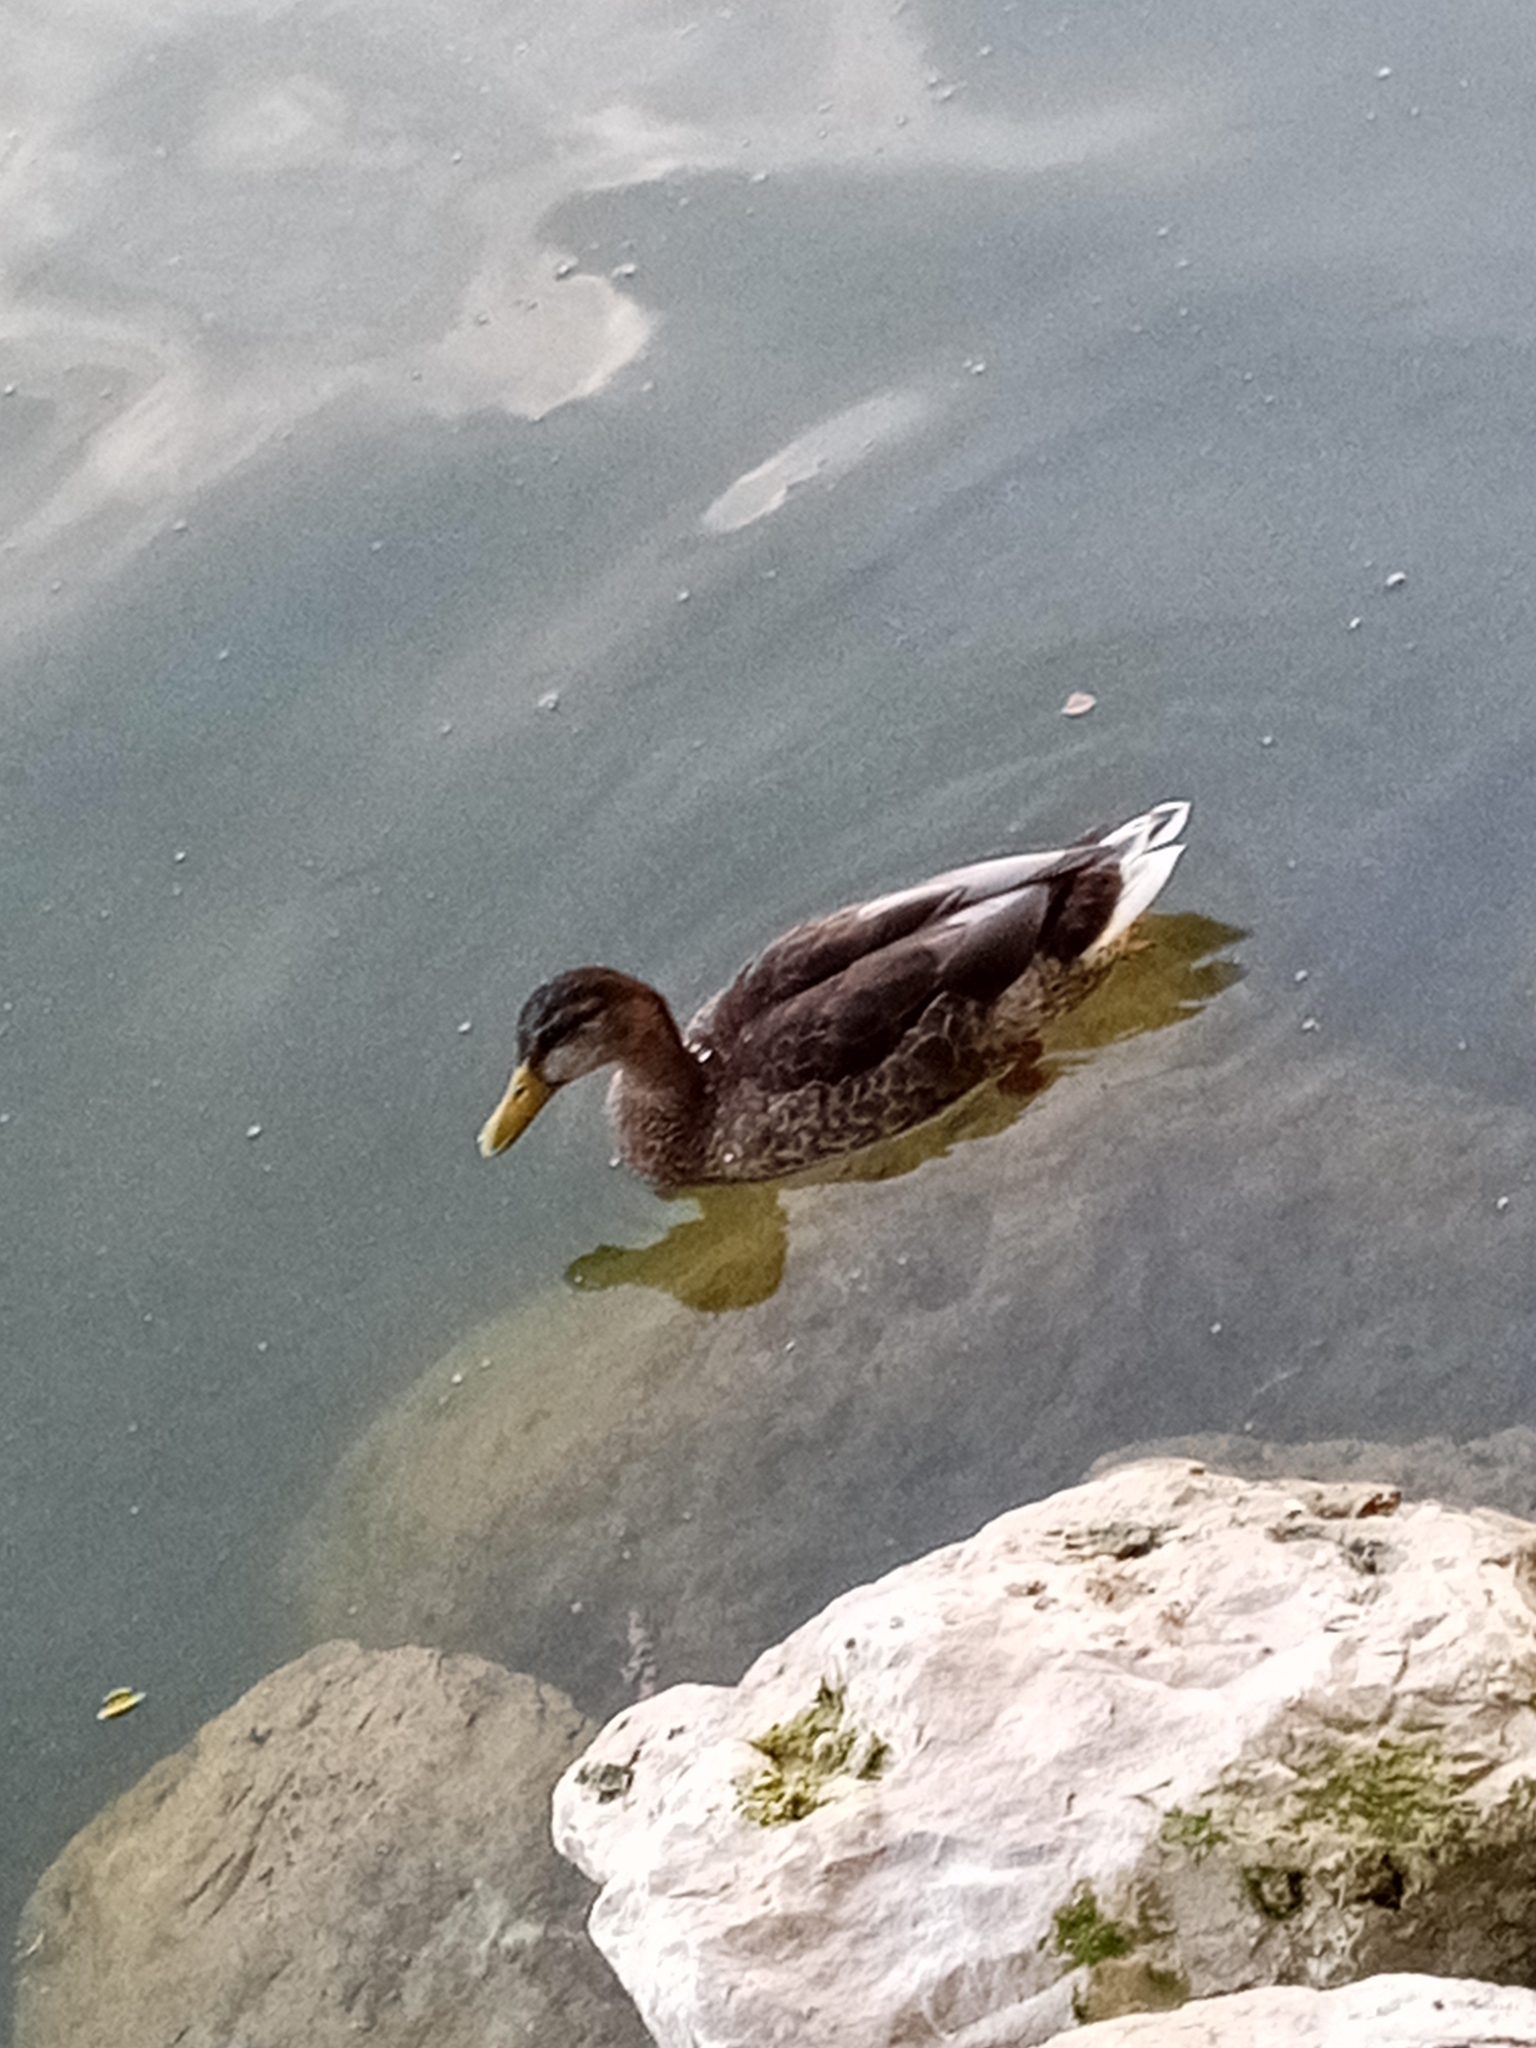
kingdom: Animalia
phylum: Chordata
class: Aves
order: Anseriformes
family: Anatidae
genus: Anas
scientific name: Anas platyrhynchos
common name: Mallard
